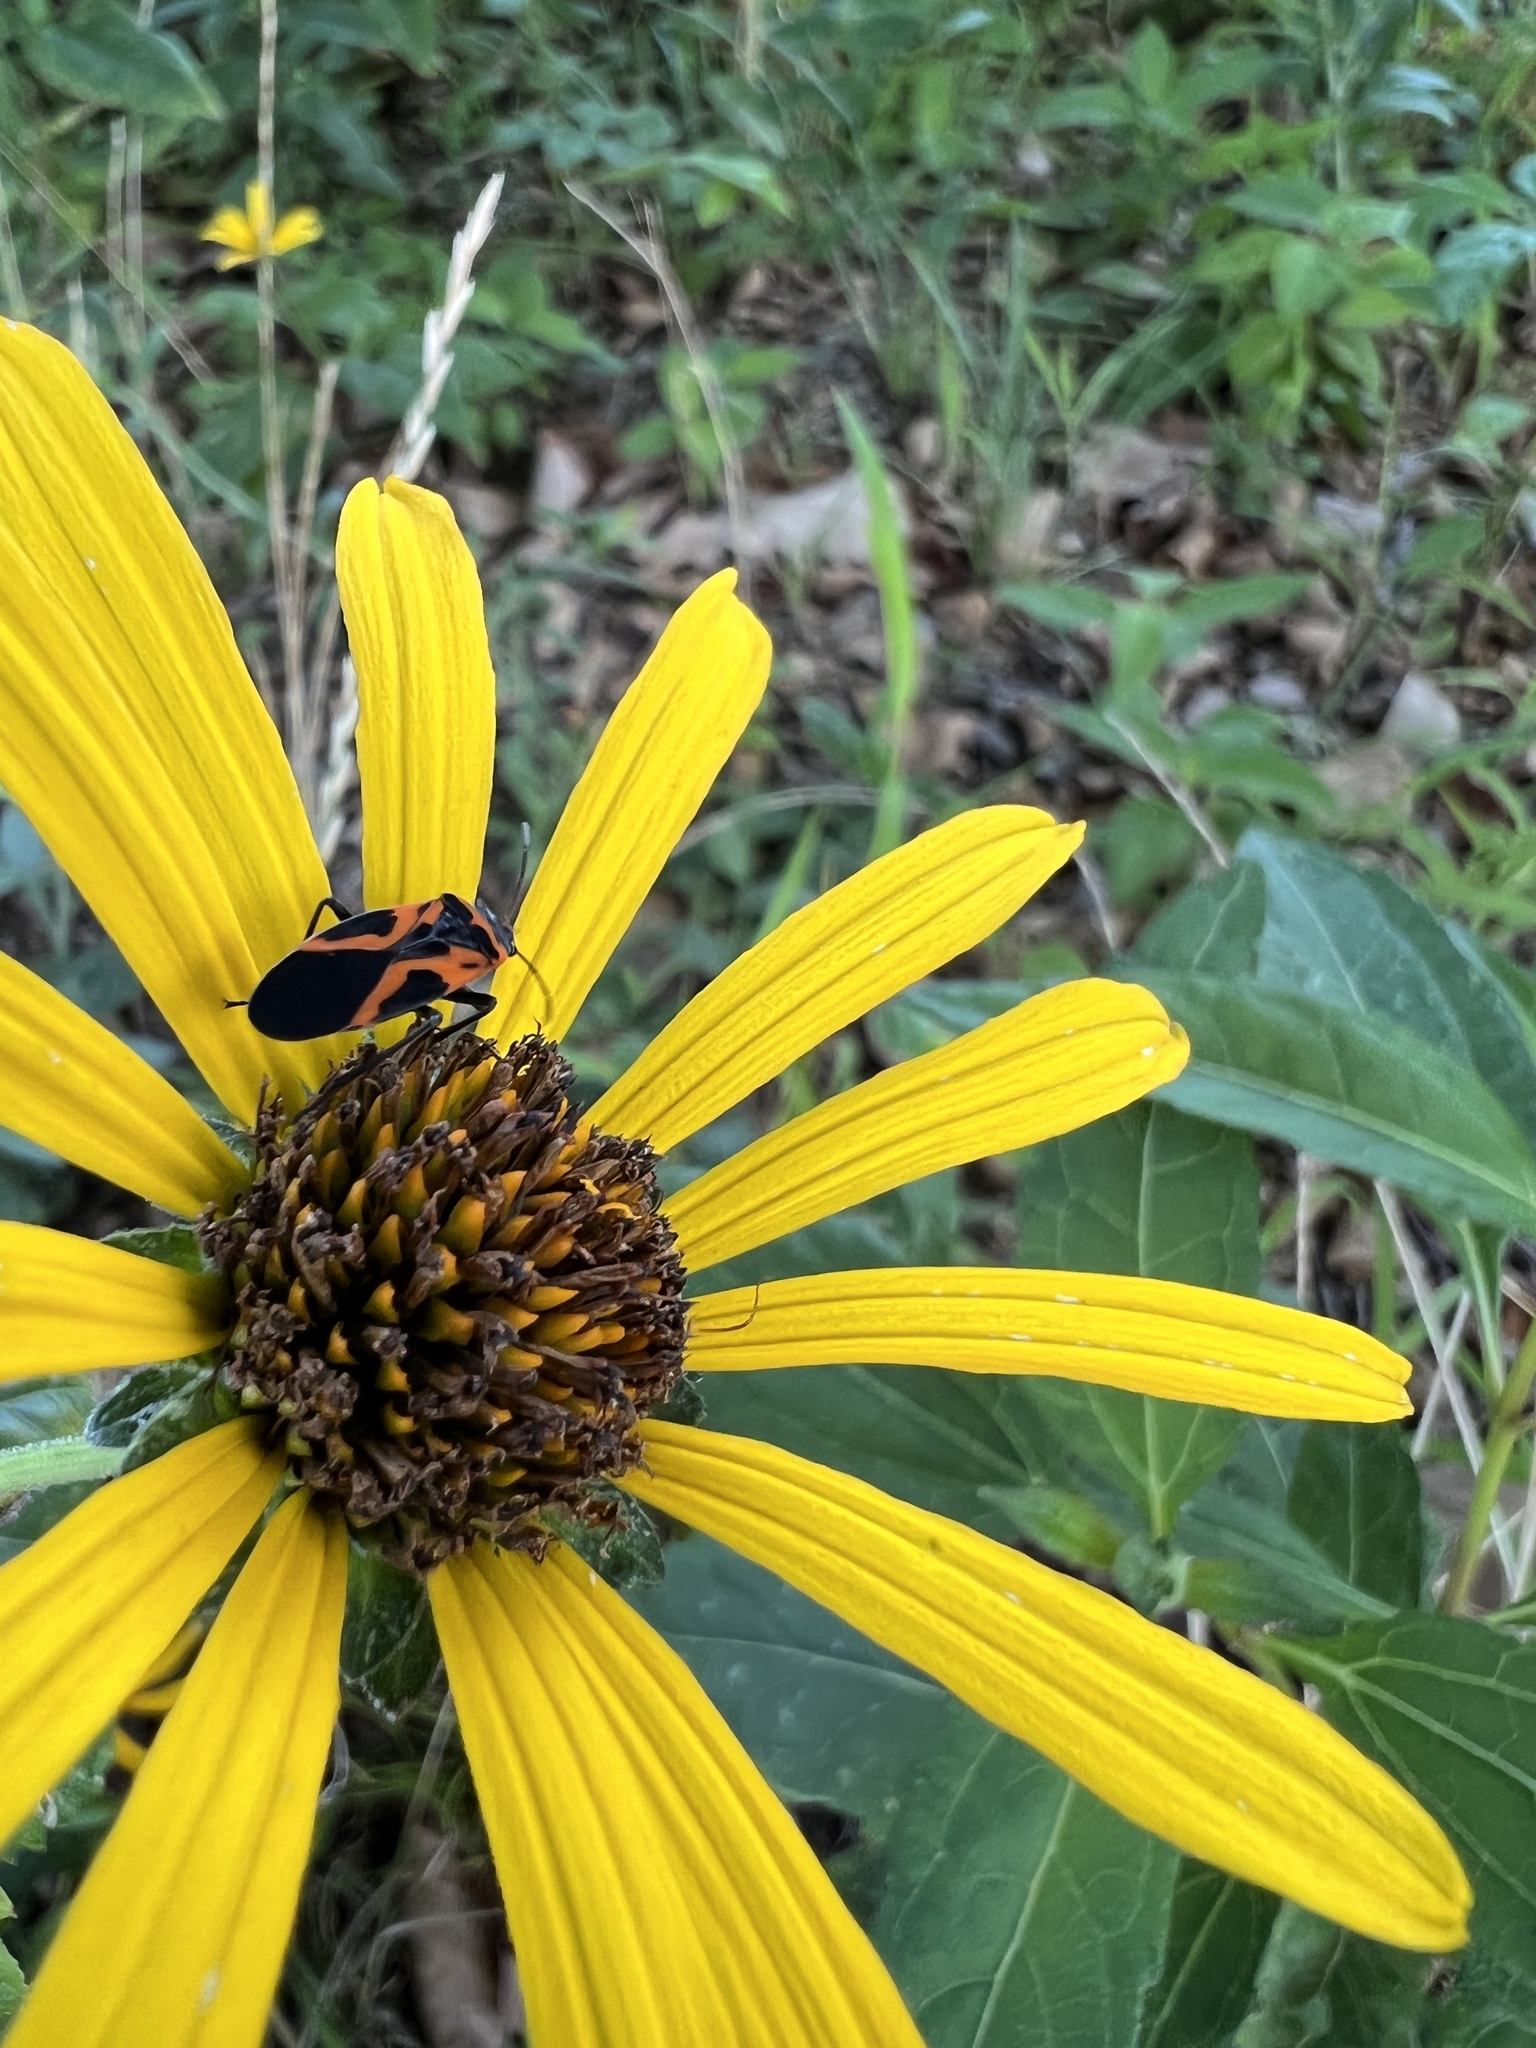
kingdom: Animalia
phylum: Arthropoda
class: Insecta
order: Hemiptera
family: Lygaeidae
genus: Lygaeus
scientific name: Lygaeus turcicus
